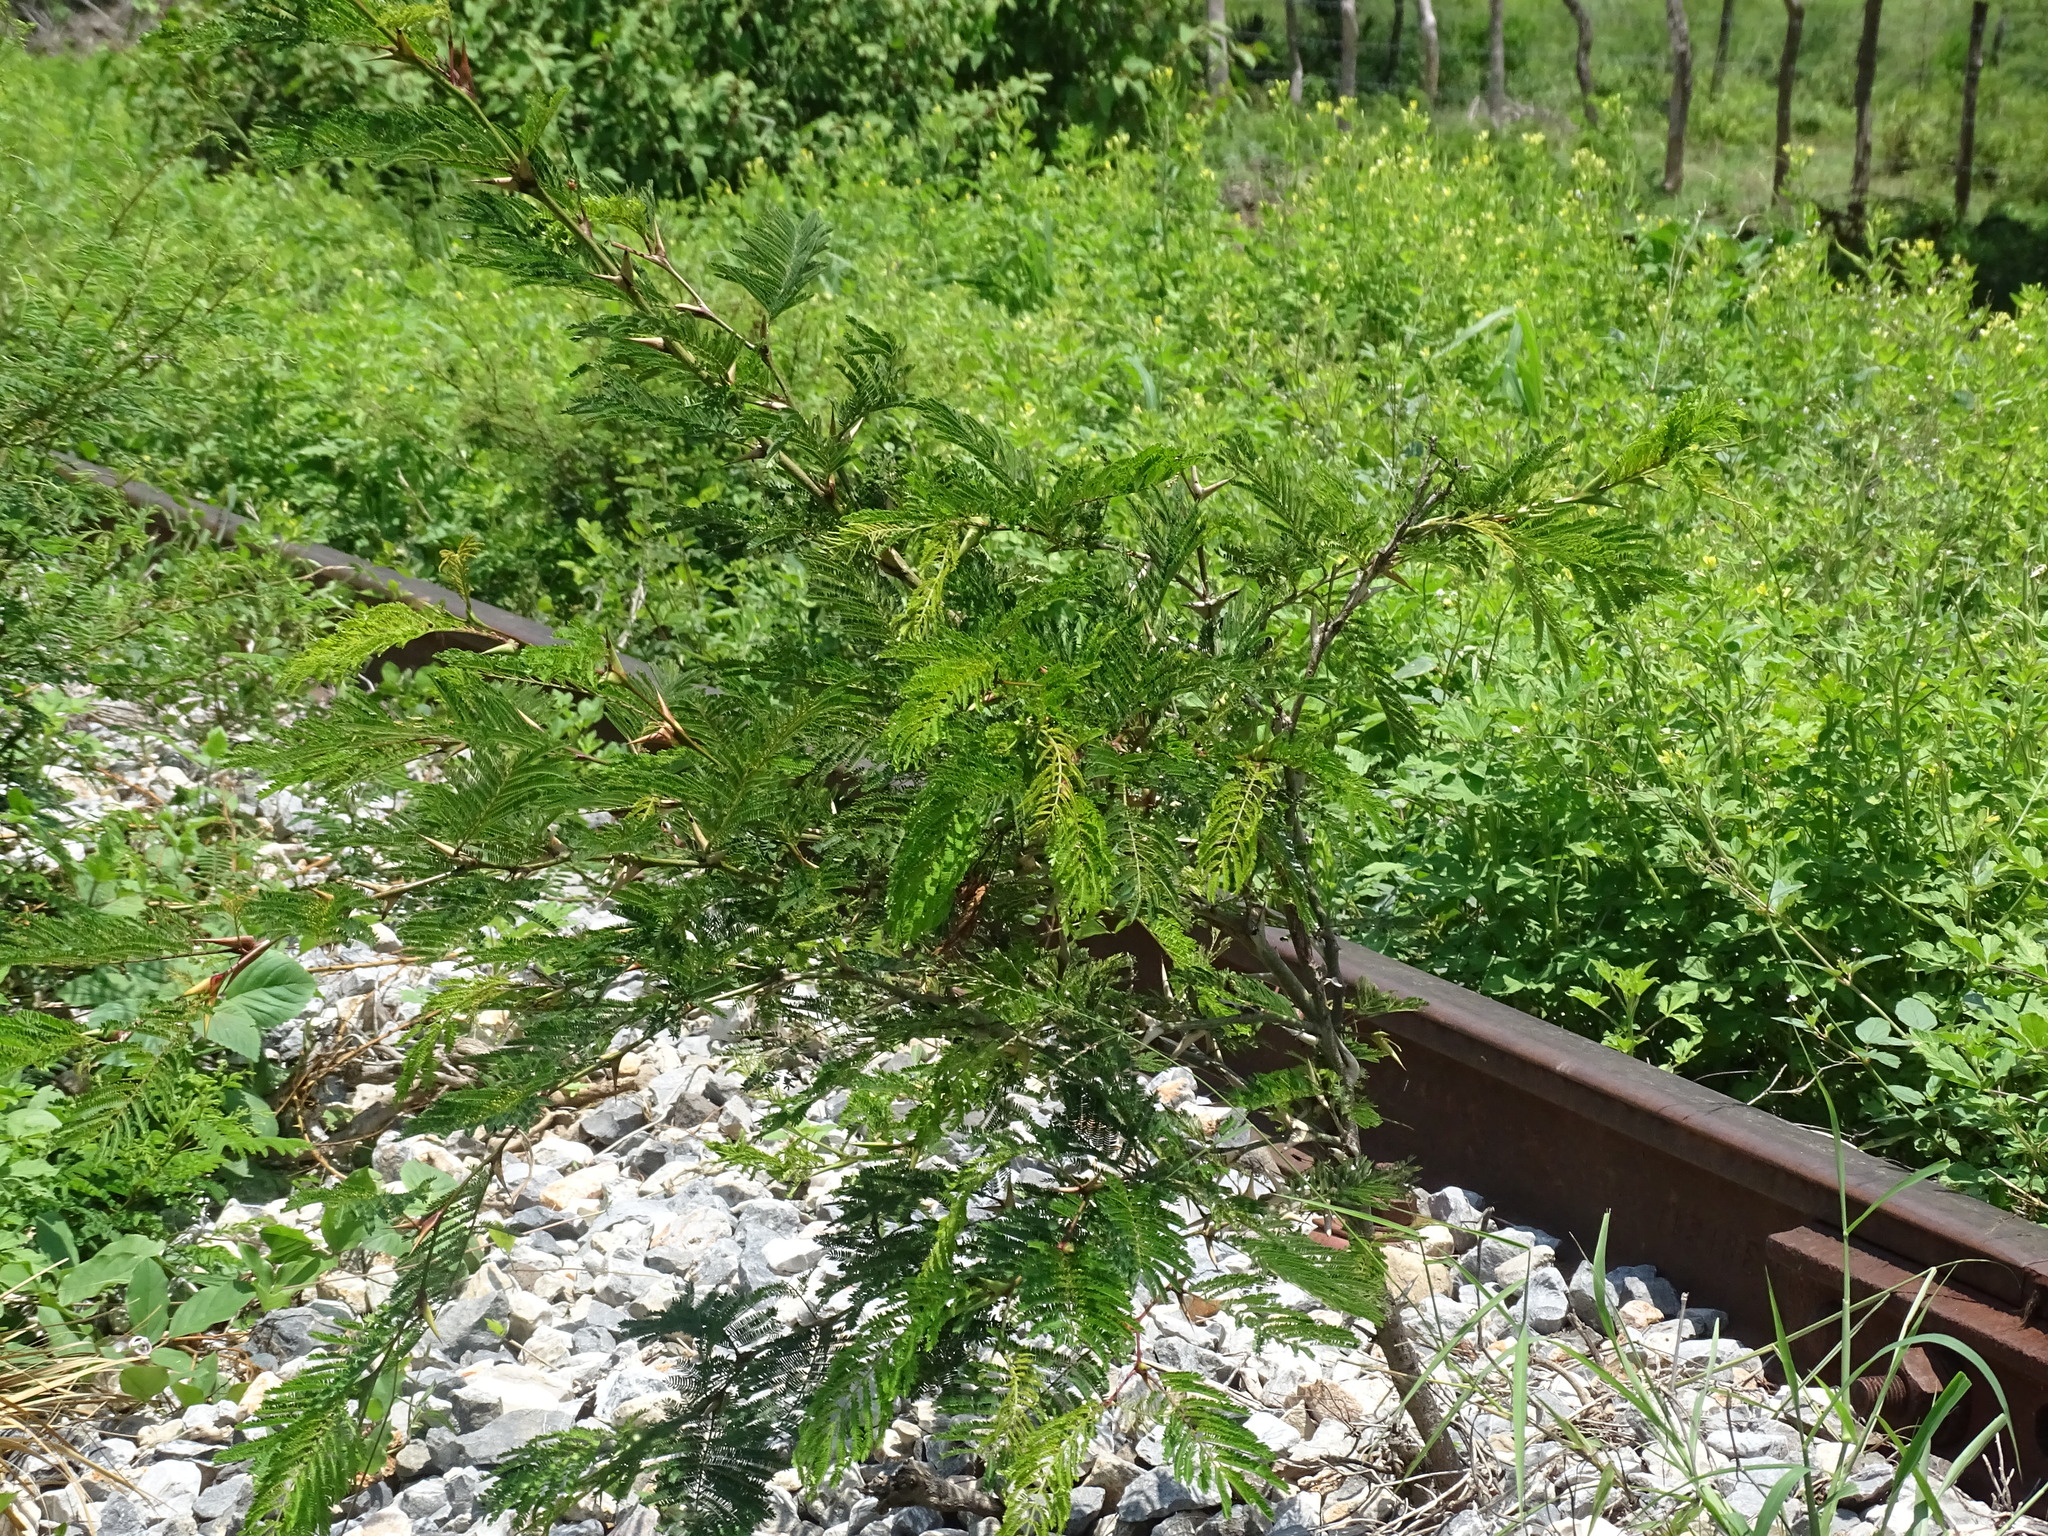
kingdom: Plantae
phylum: Tracheophyta
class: Magnoliopsida
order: Fabales
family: Fabaceae
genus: Vachellia
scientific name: Vachellia cornigera
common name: Bullhorn wattle
